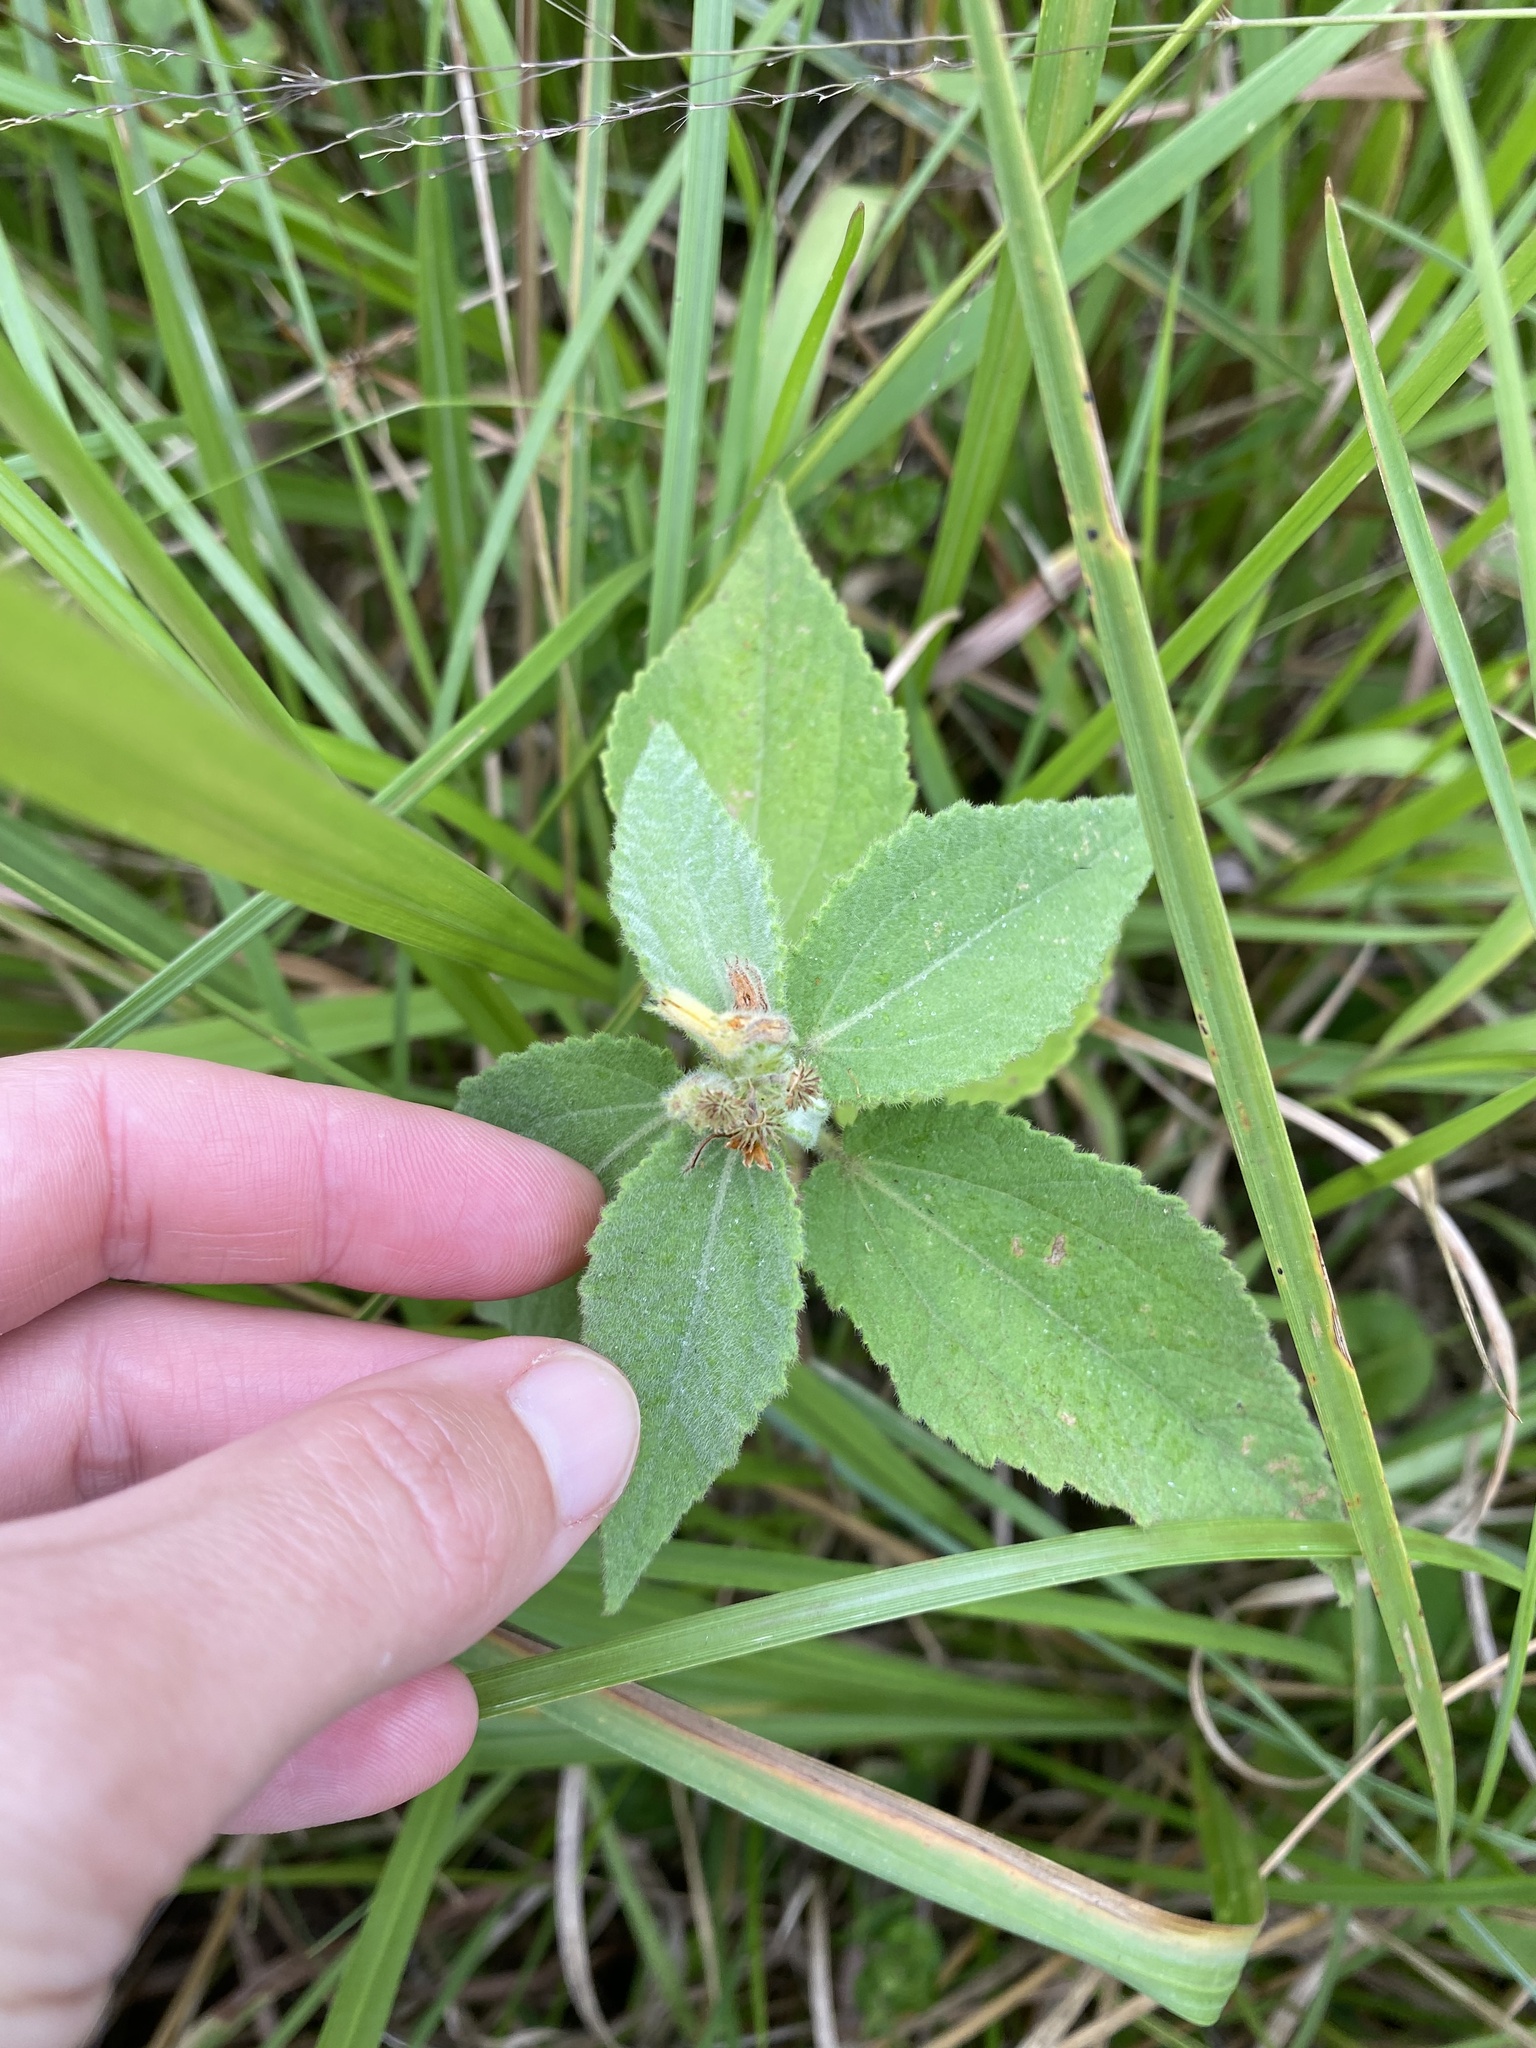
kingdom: Plantae
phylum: Tracheophyta
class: Magnoliopsida
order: Malvales
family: Malvaceae
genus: Triumfetta
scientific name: Triumfetta pilosa
